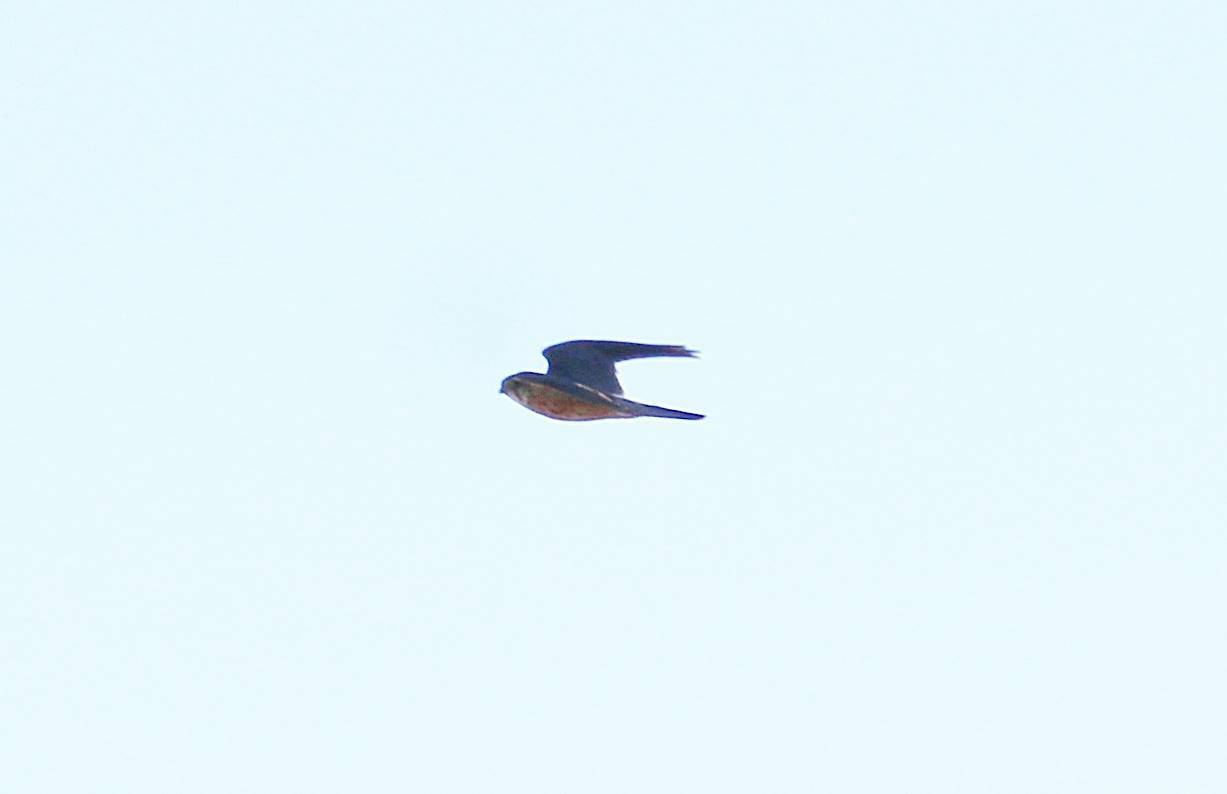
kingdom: Animalia
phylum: Chordata
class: Aves
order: Falconiformes
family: Falconidae
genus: Falco
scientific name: Falco columbarius
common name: Merlin
